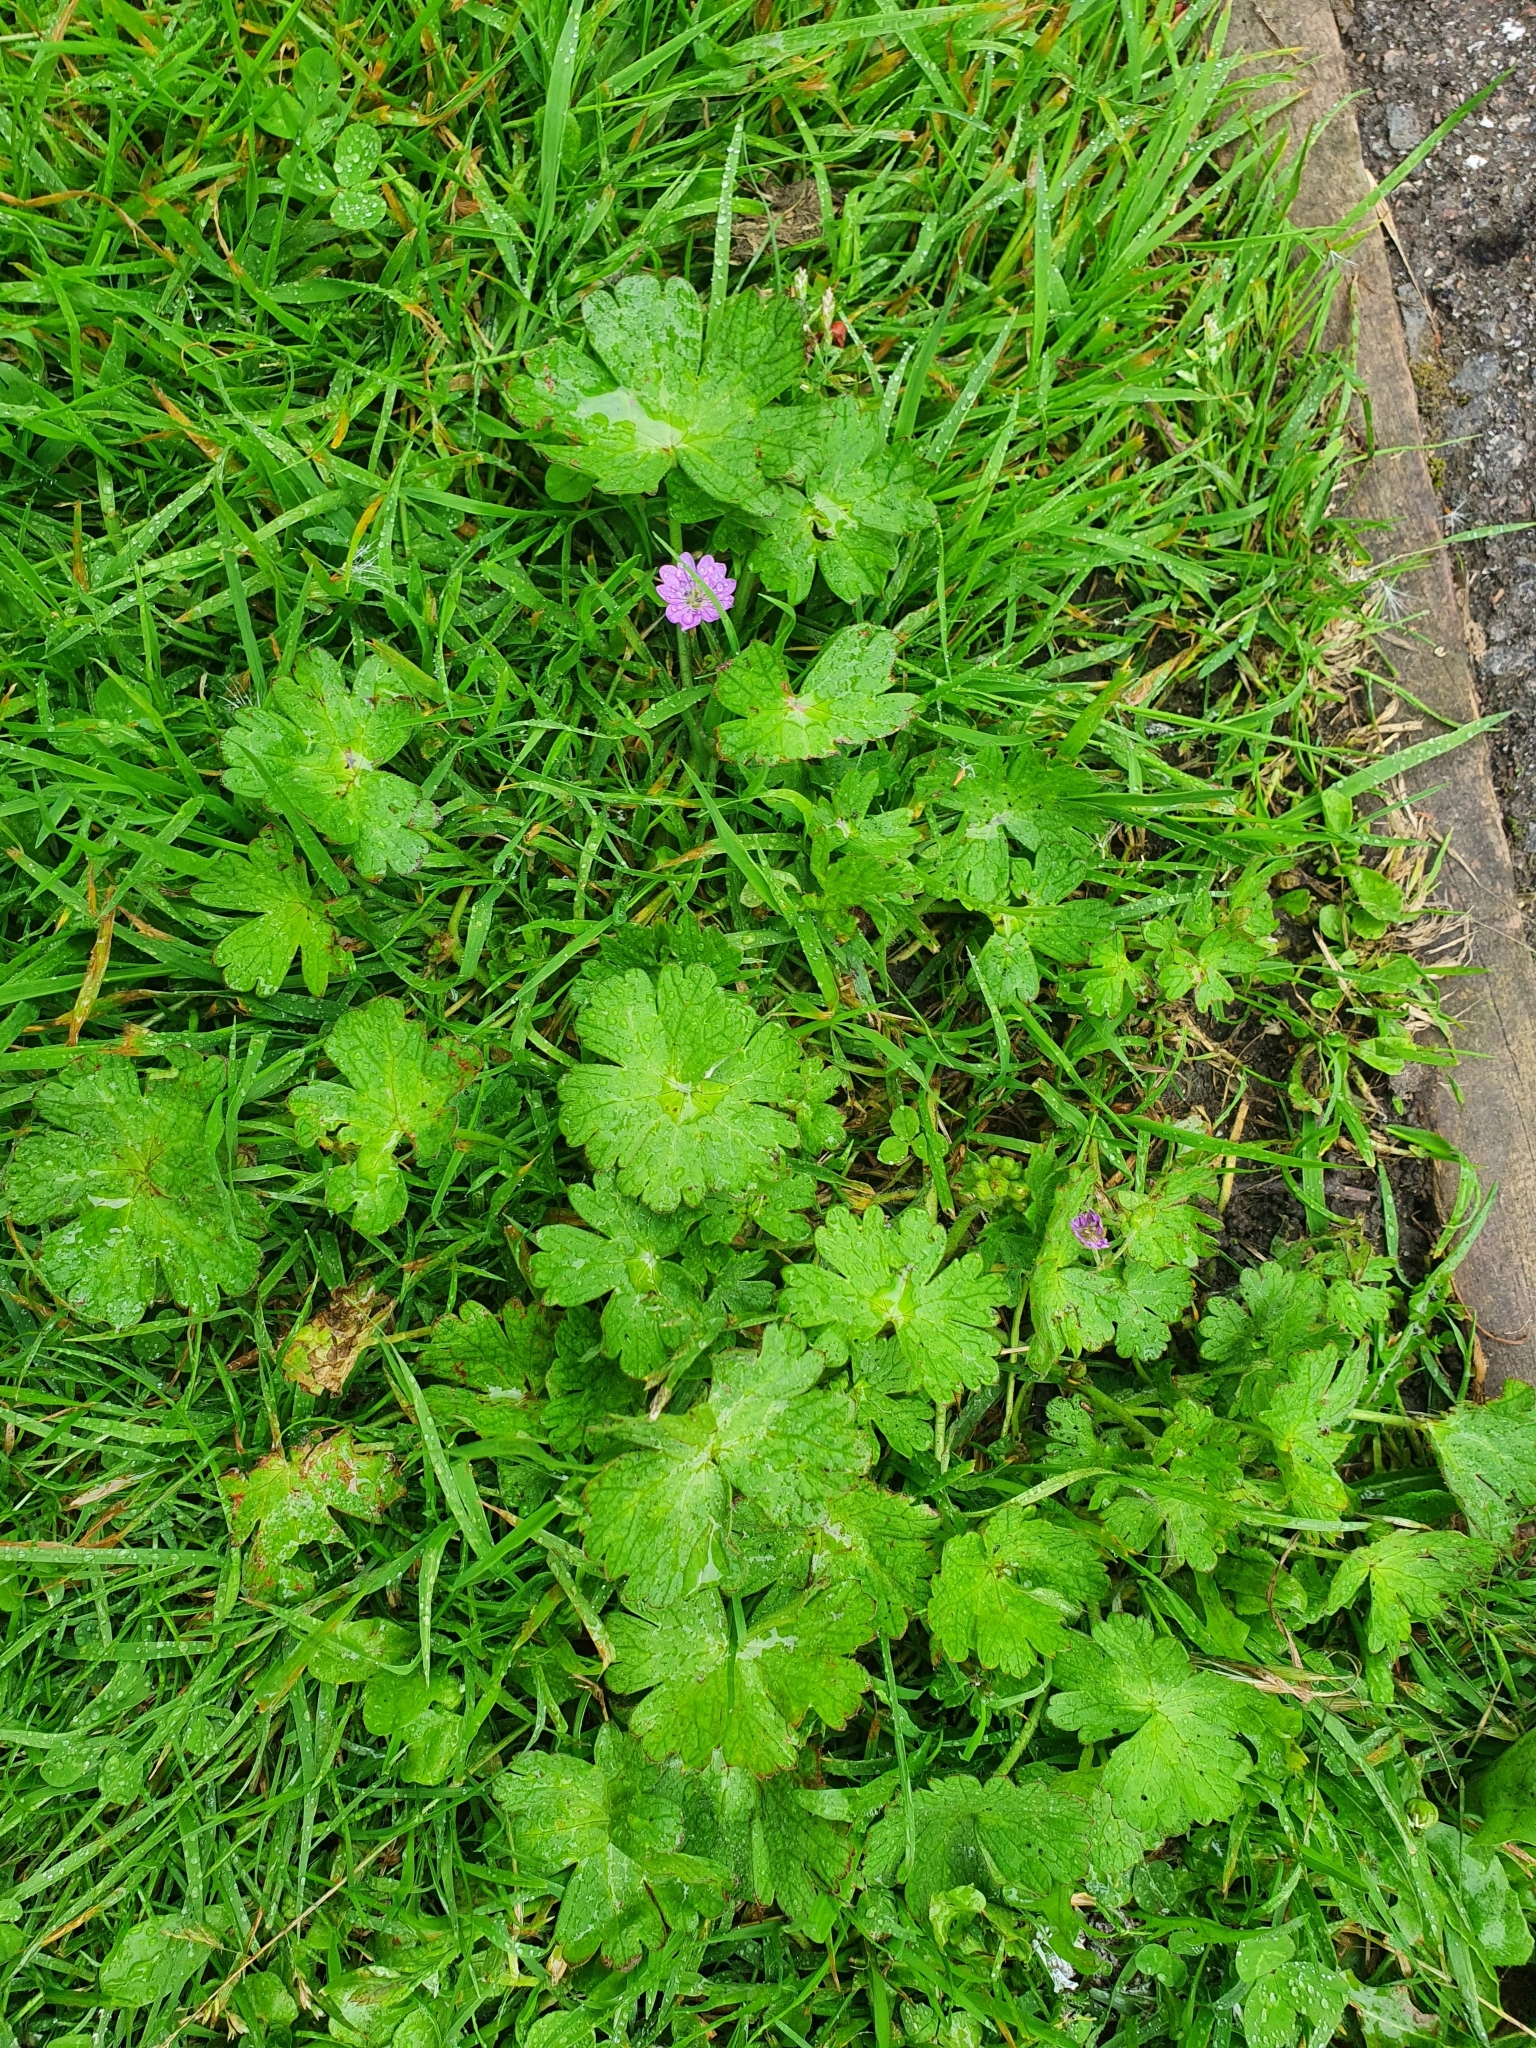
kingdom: Plantae
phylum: Tracheophyta
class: Magnoliopsida
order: Geraniales
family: Geraniaceae
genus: Geranium
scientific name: Geranium molle
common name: Dove's-foot crane's-bill
